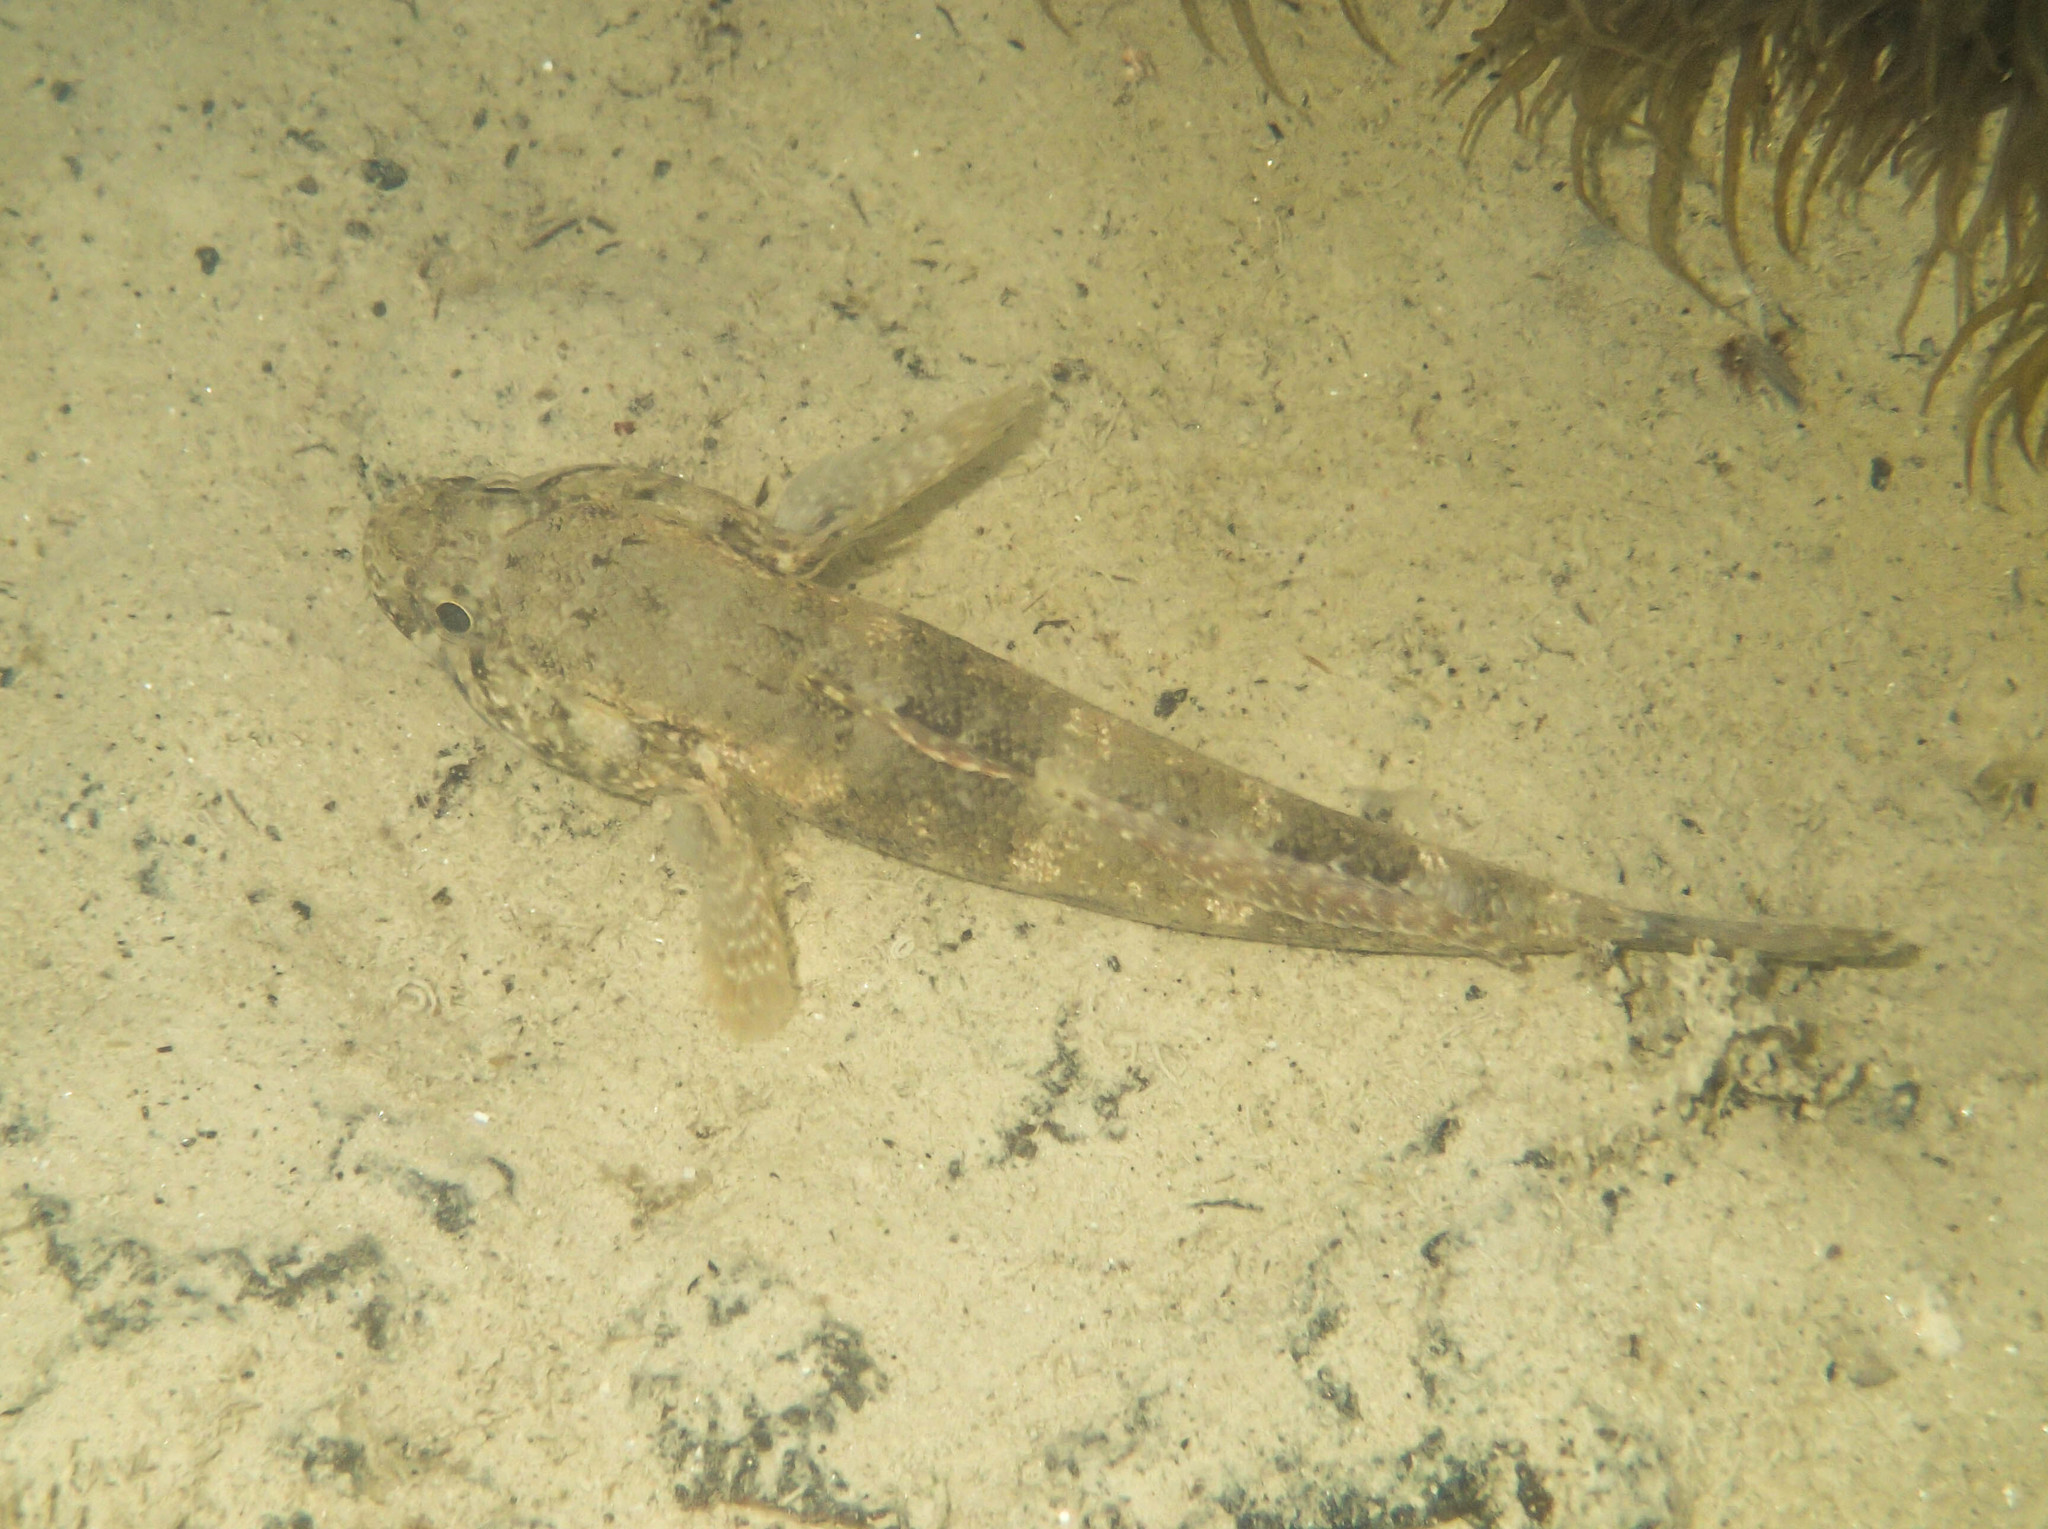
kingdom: Animalia
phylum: Chordata
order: Perciformes
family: Gobiidae
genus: Gobius
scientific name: Gobius paganellus
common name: Rock goby
